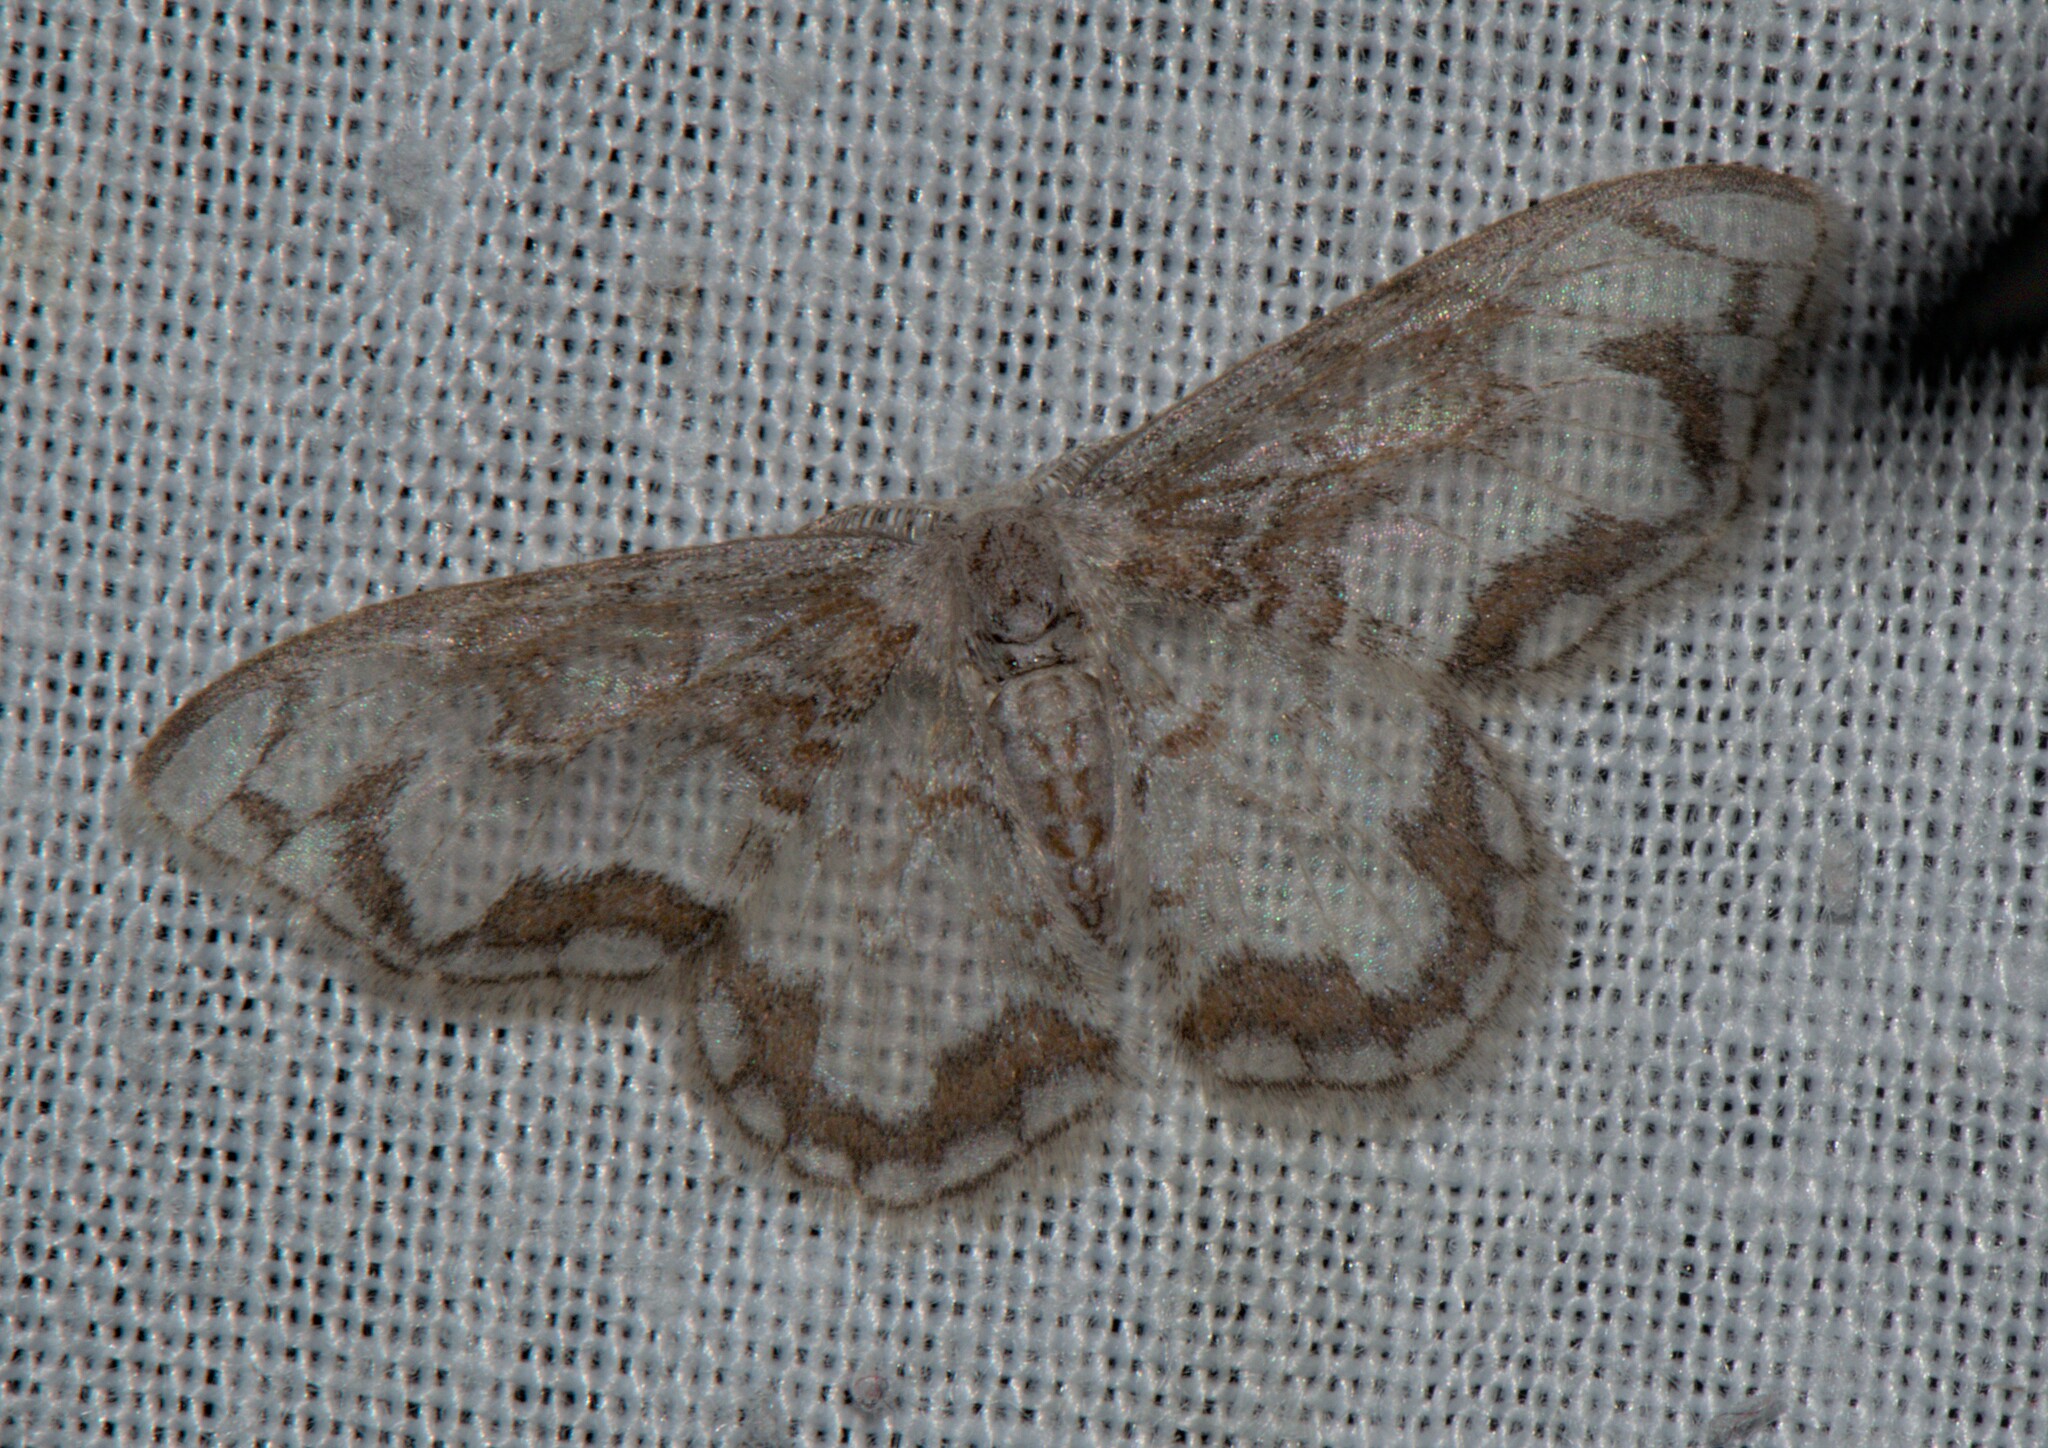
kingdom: Animalia
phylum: Arthropoda
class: Insecta
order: Lepidoptera
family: Drepanidae
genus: Auzatellodes
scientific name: Auzatellodes
